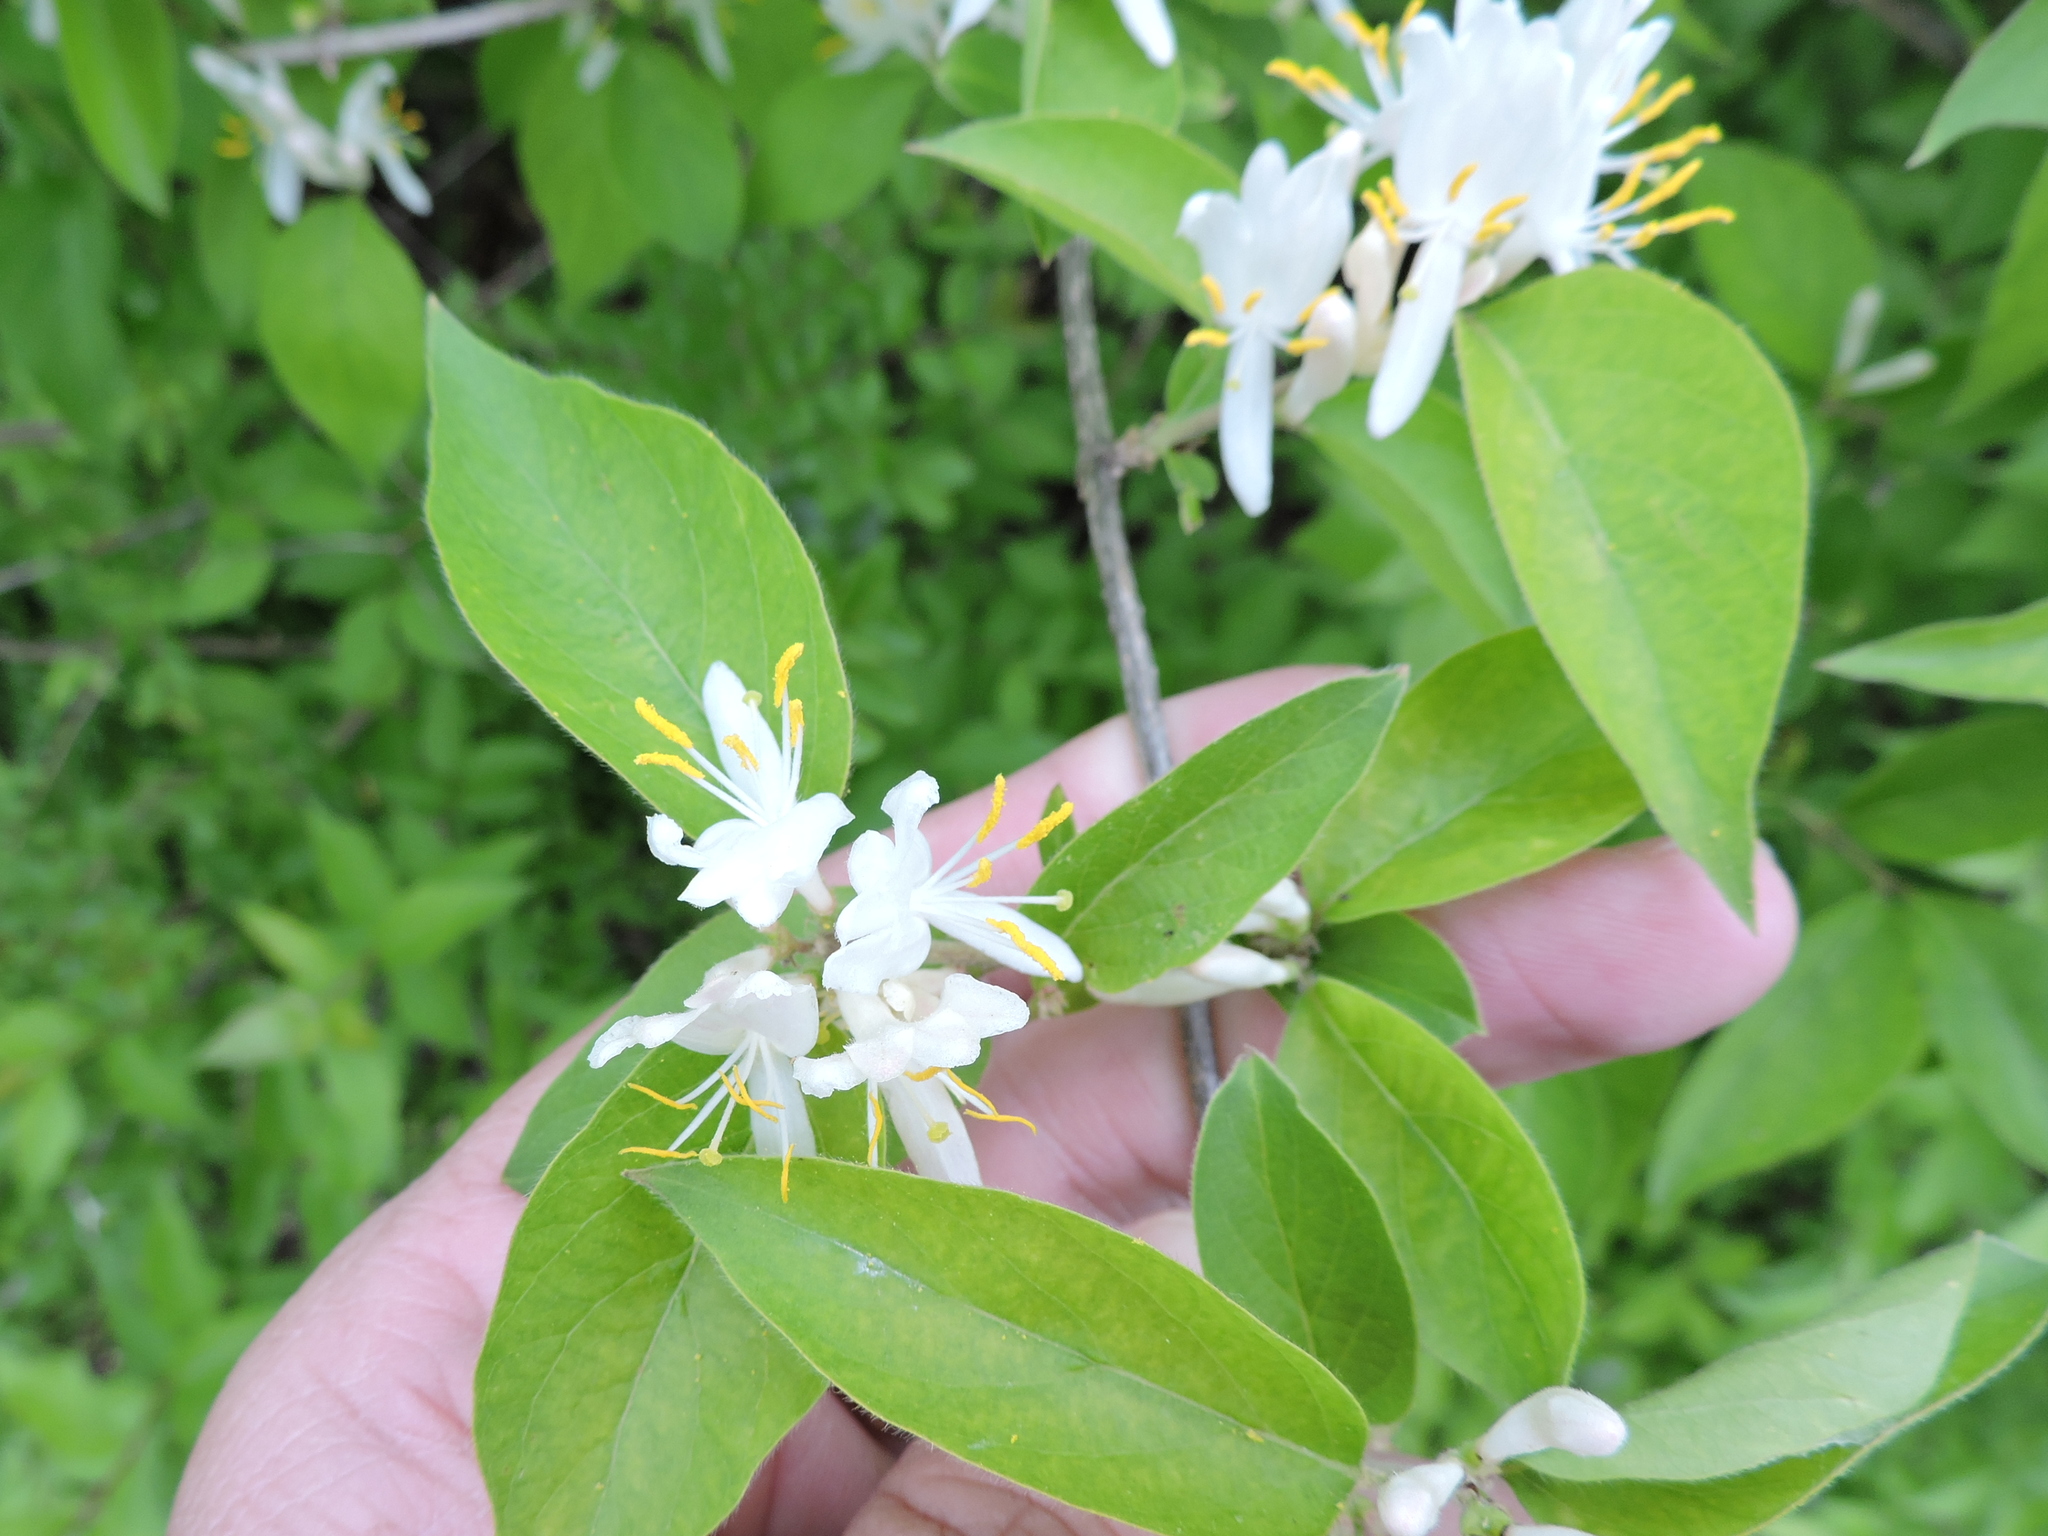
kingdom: Plantae
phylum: Tracheophyta
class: Magnoliopsida
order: Dipsacales
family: Caprifoliaceae
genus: Lonicera
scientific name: Lonicera maackii
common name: Amur honeysuckle
